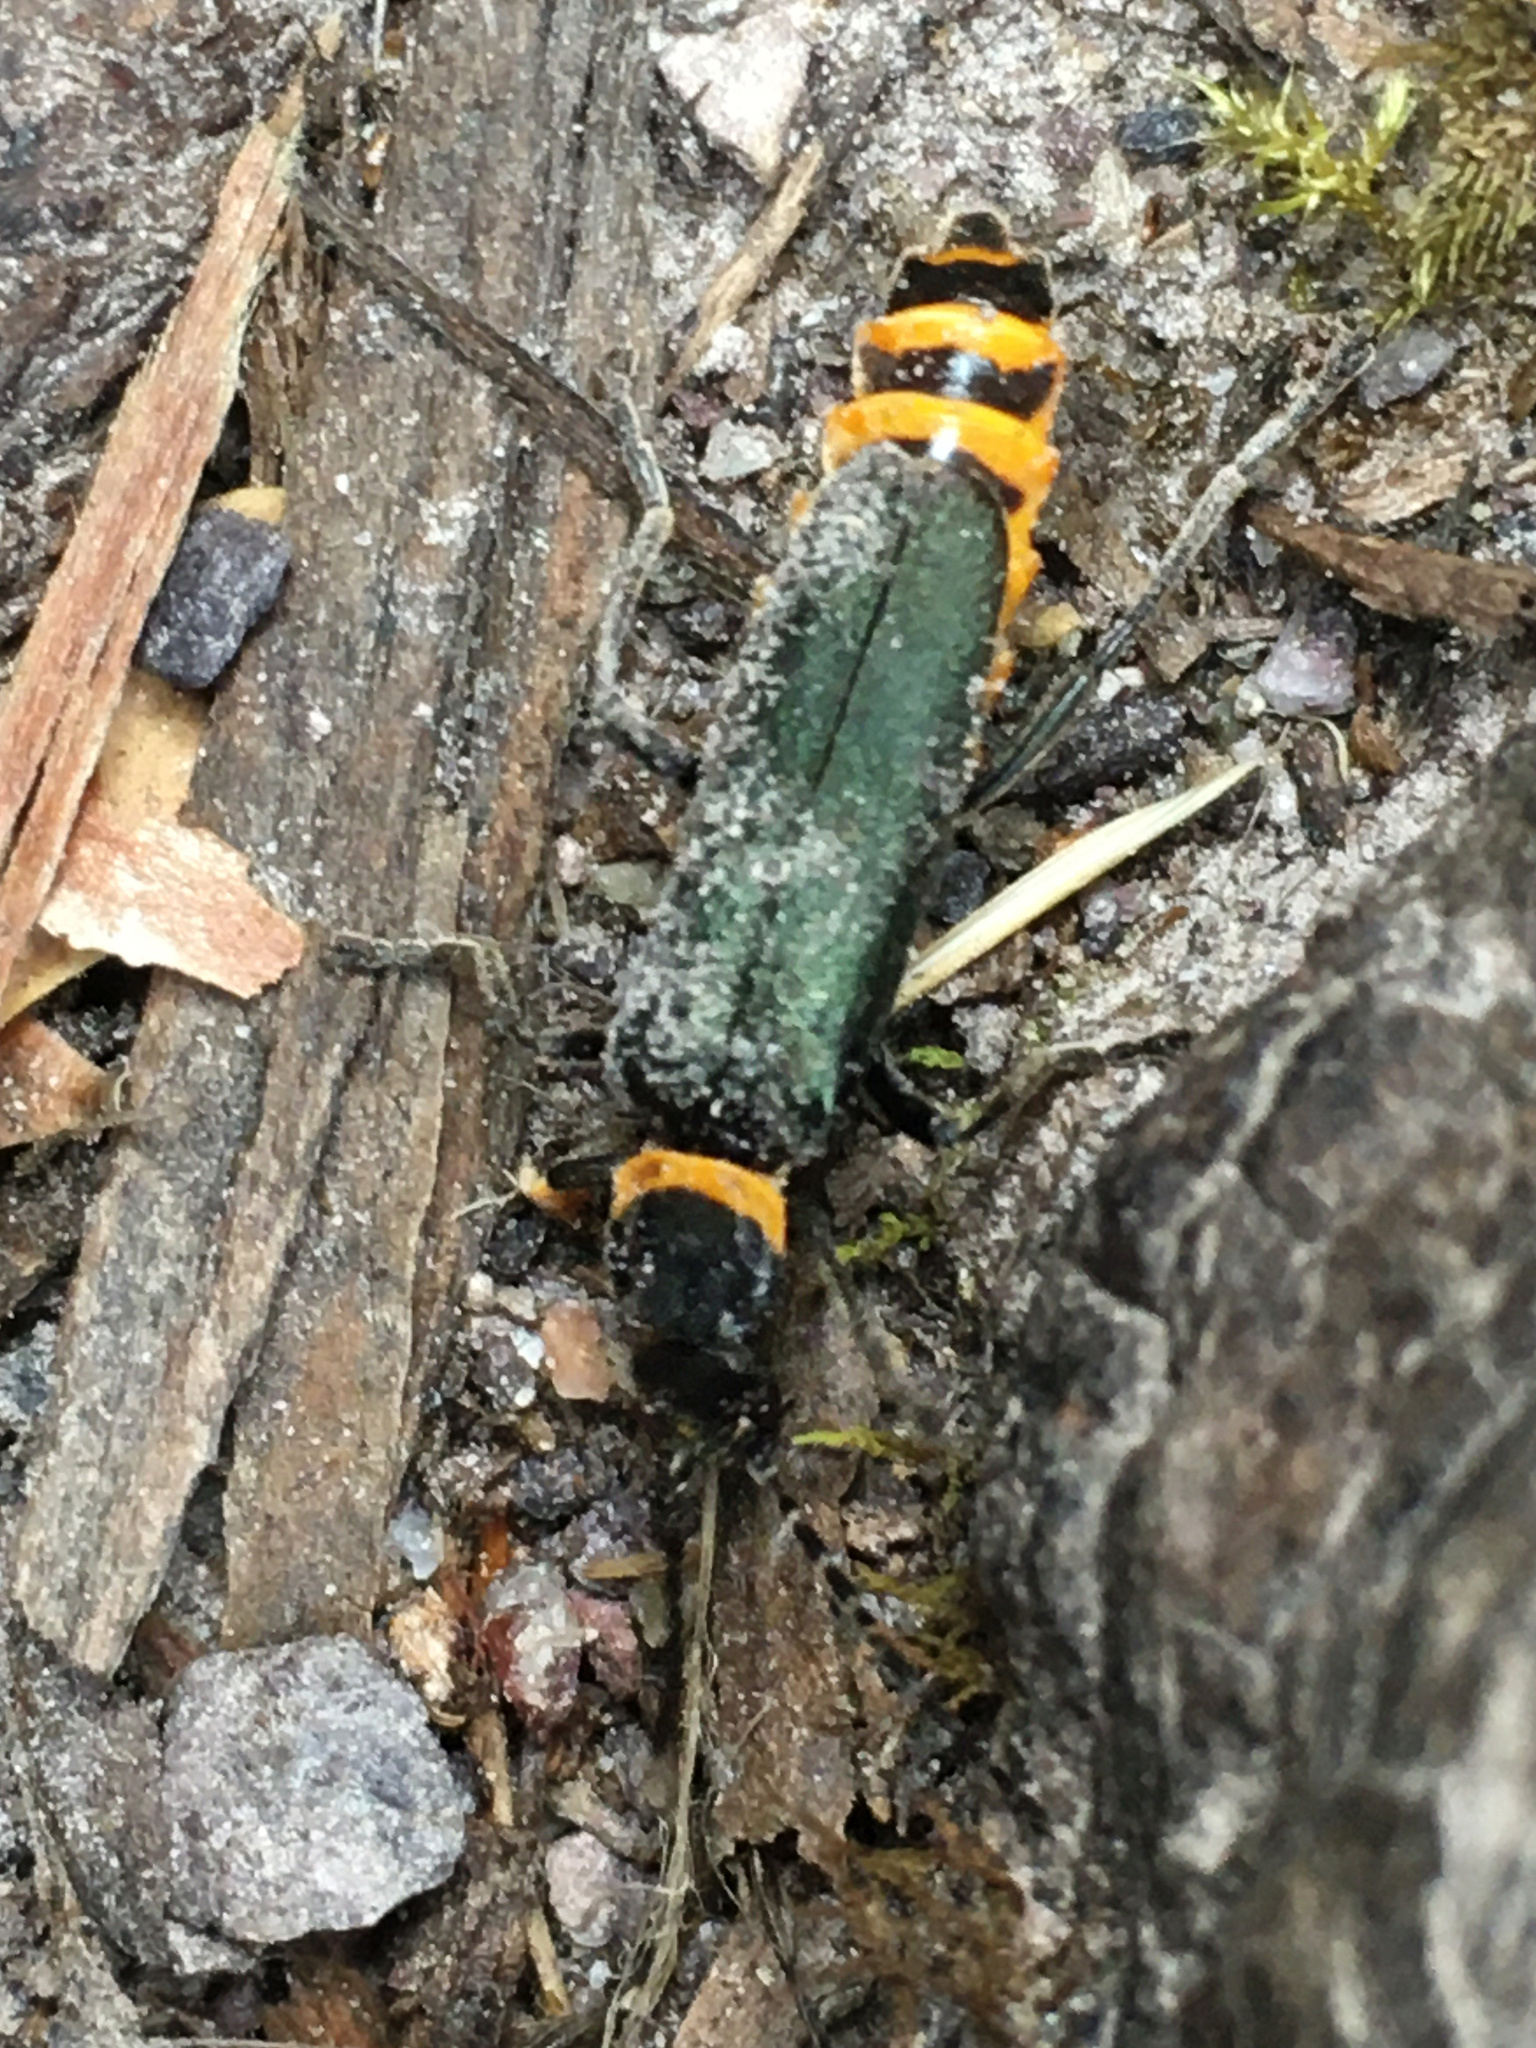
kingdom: Animalia
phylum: Arthropoda
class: Insecta
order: Coleoptera
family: Cantharidae
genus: Chauliognathus
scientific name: Chauliognathus
